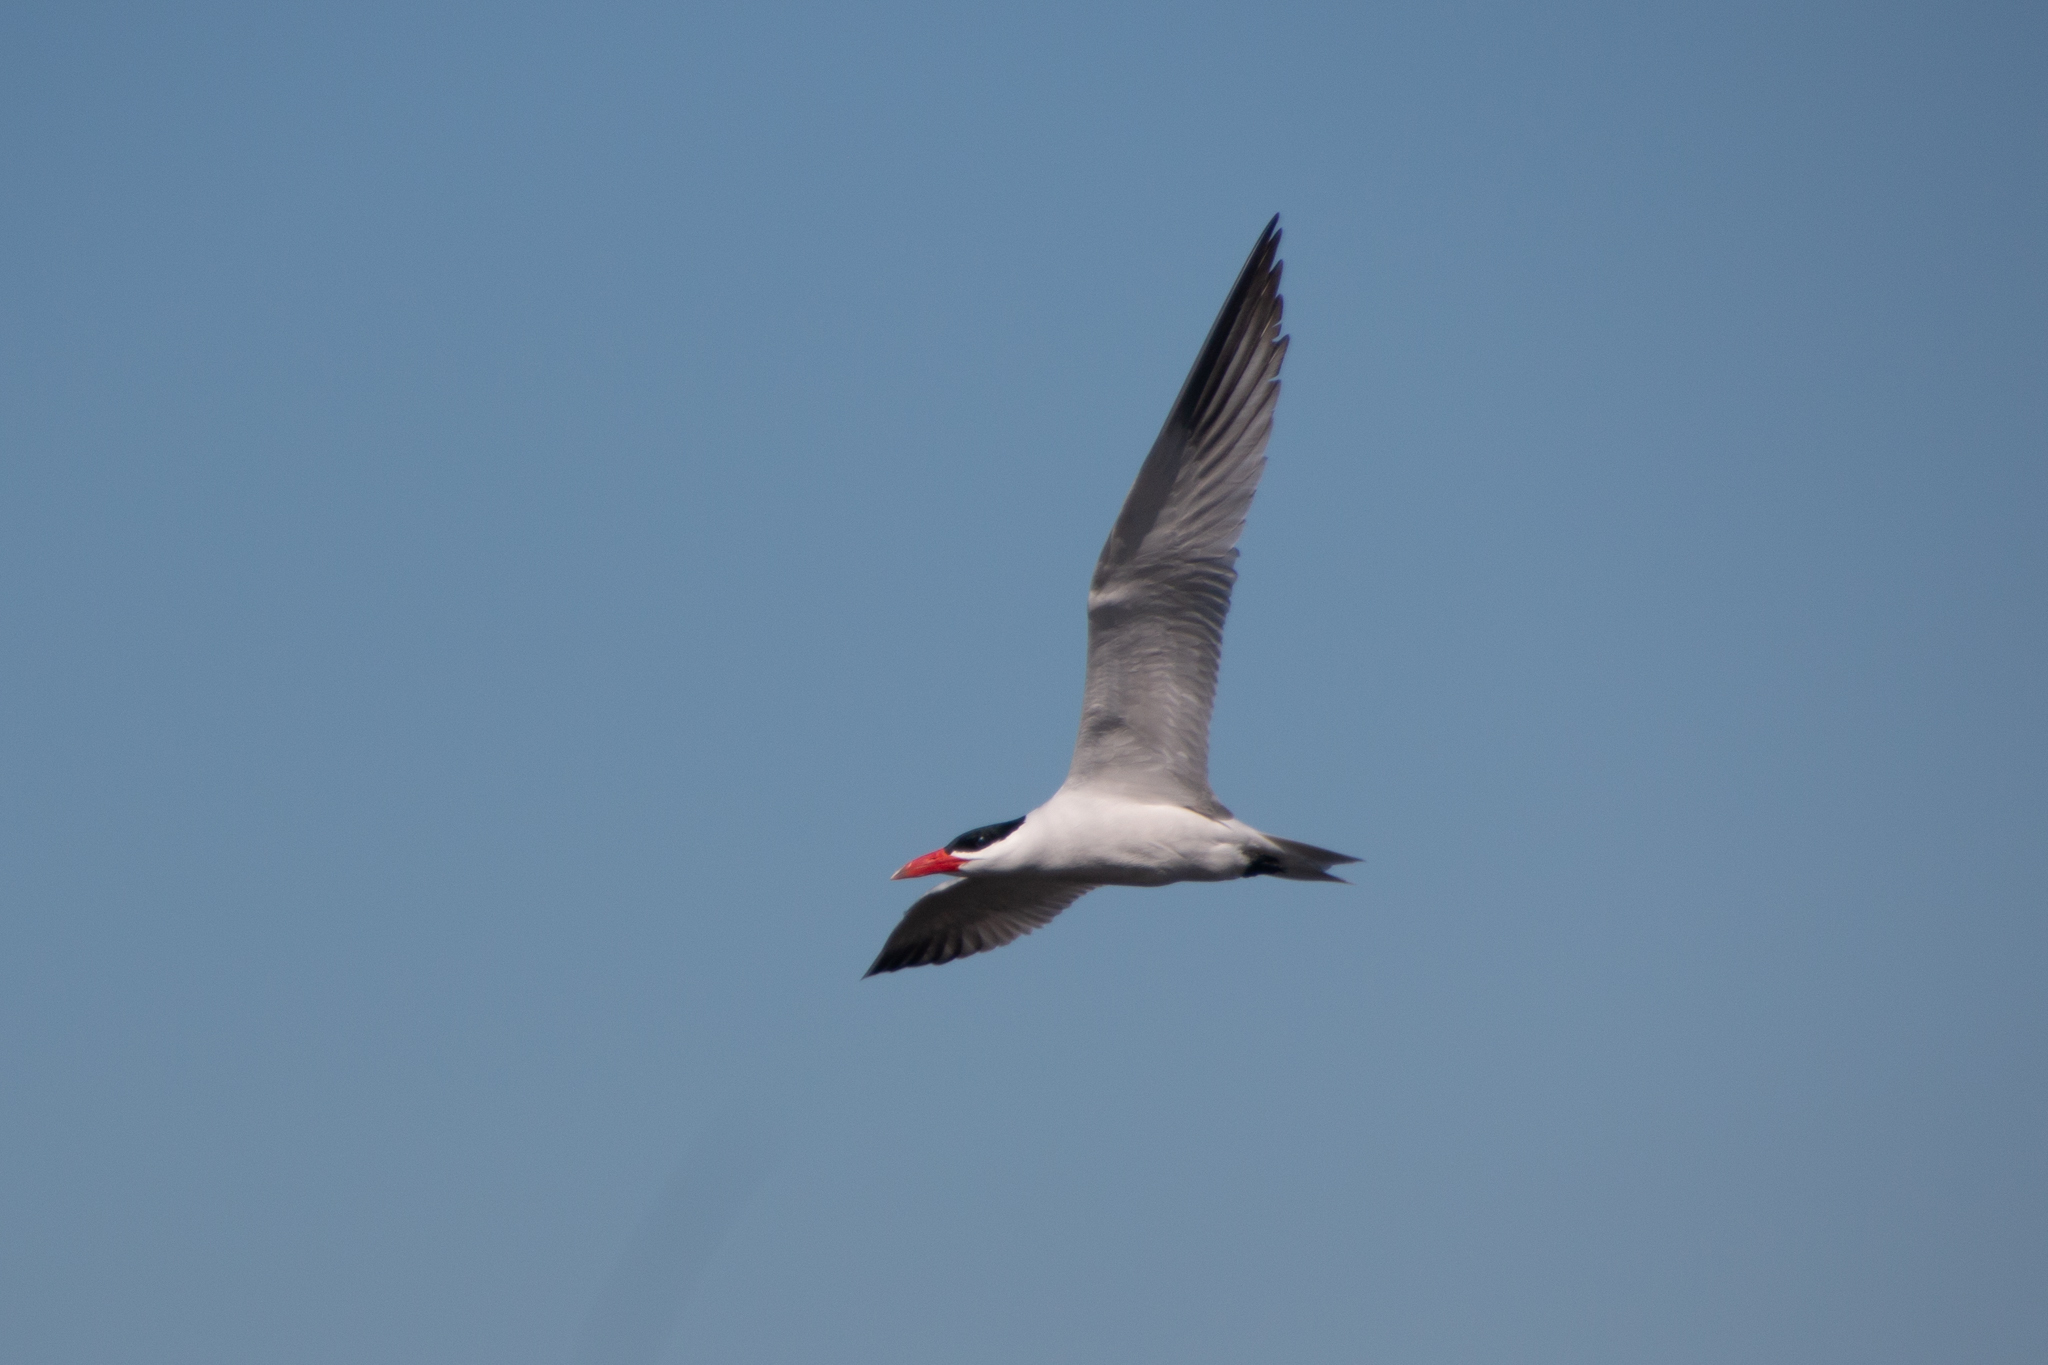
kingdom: Animalia
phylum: Chordata
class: Aves
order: Charadriiformes
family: Laridae
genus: Hydroprogne
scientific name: Hydroprogne caspia
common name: Caspian tern
